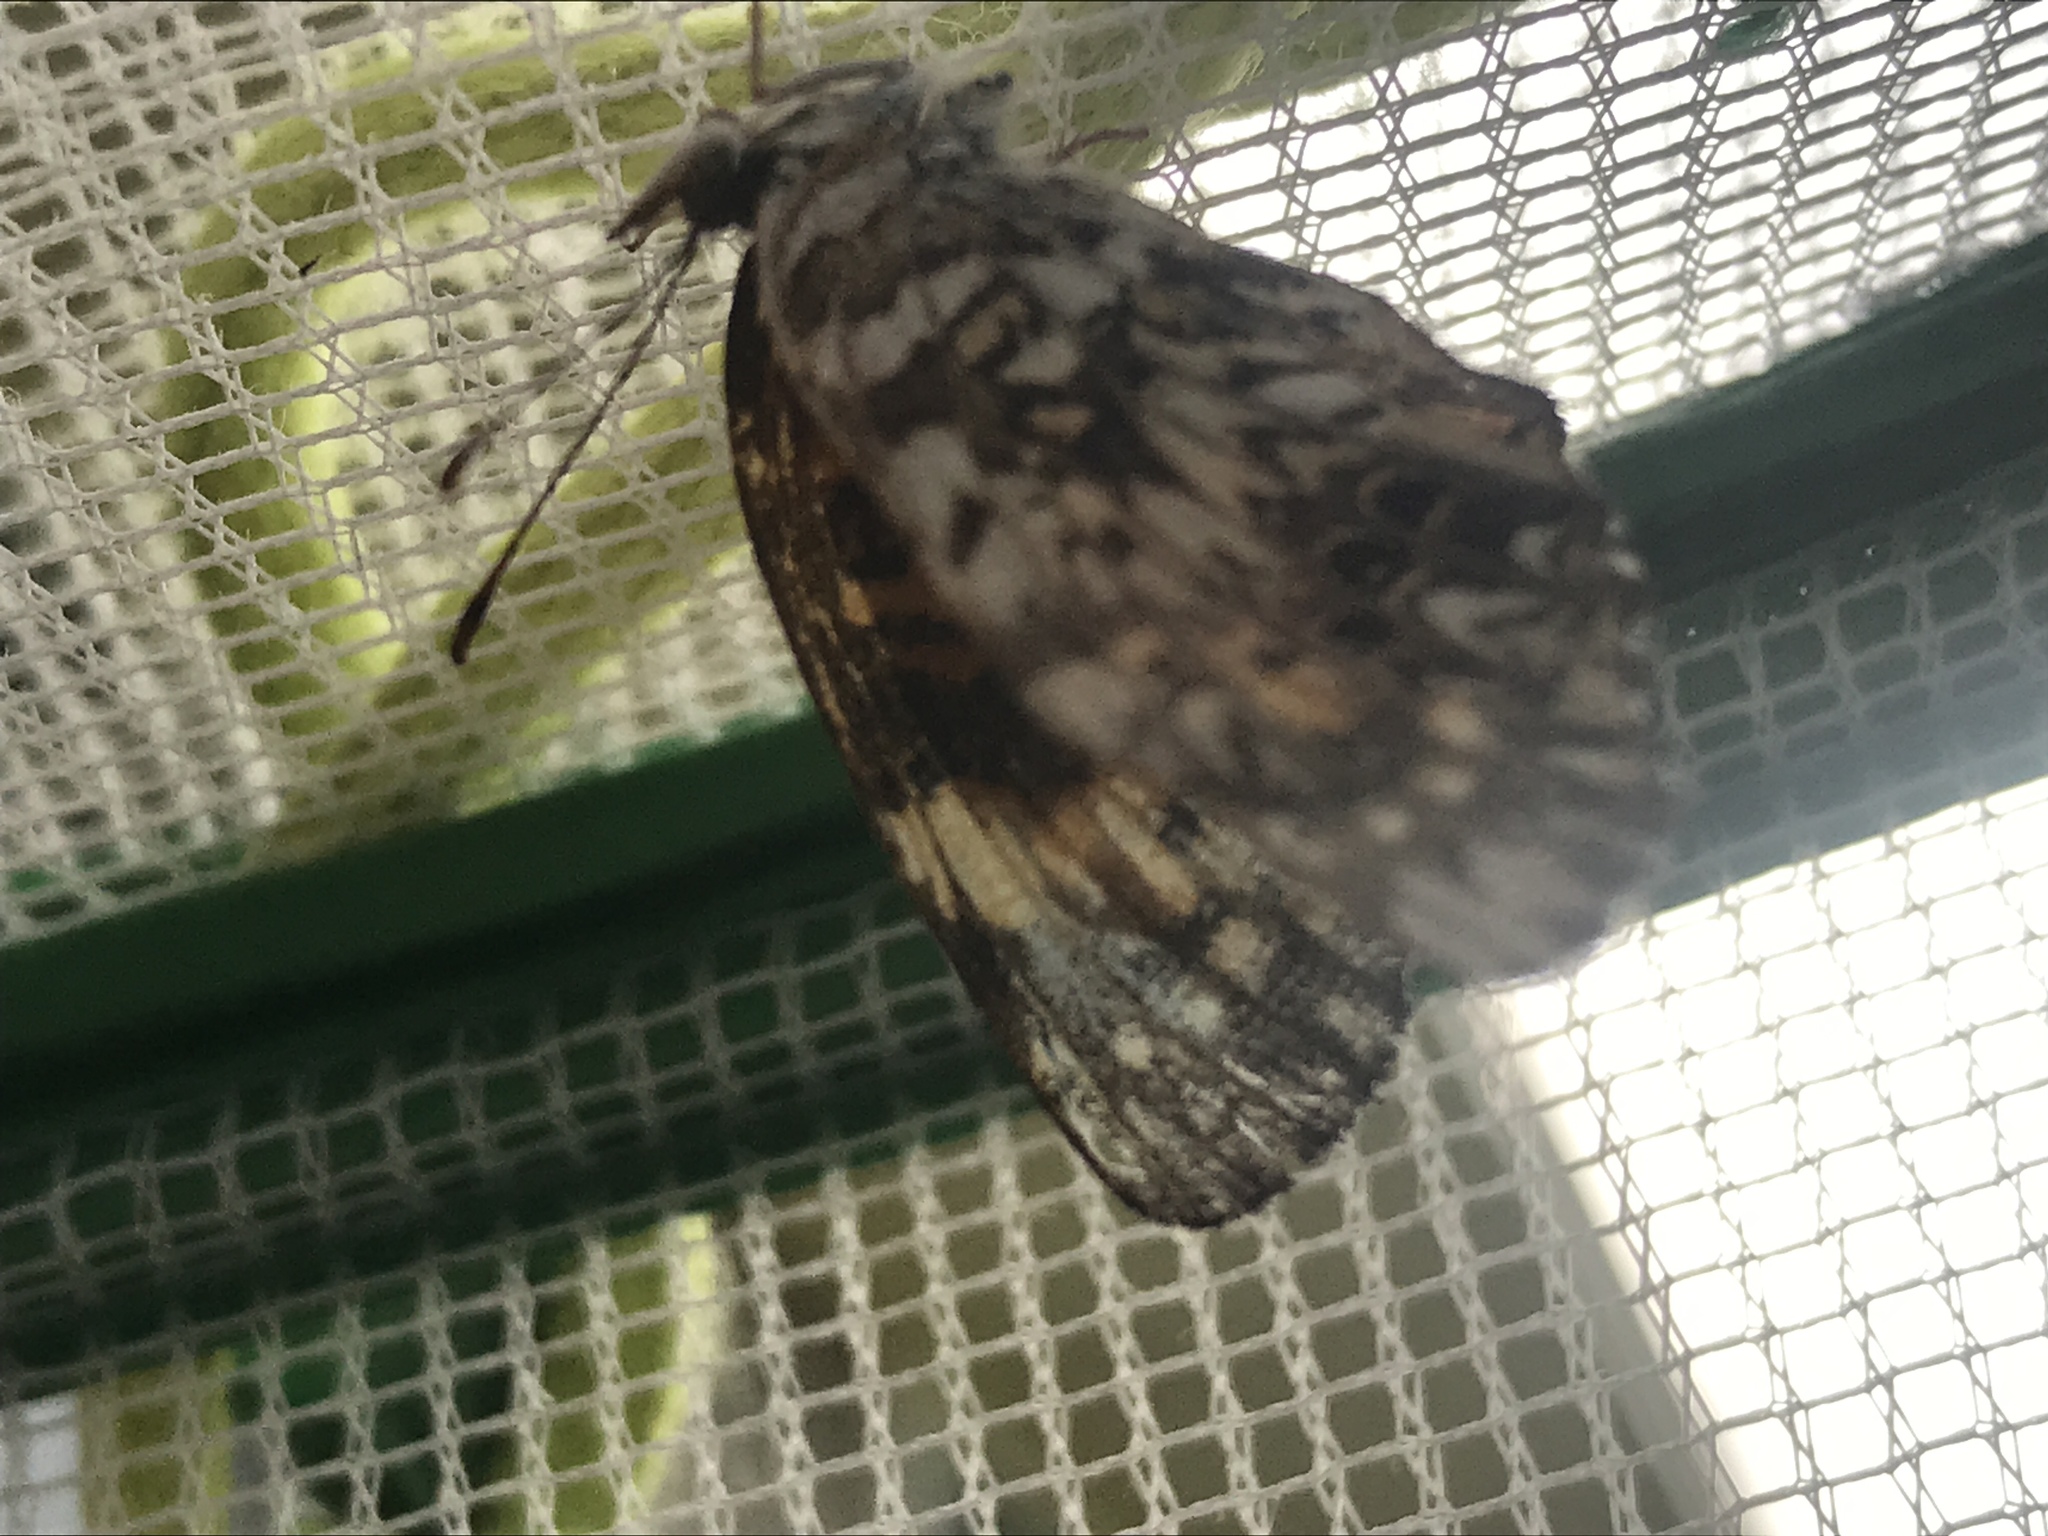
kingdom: Animalia
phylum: Arthropoda
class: Insecta
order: Lepidoptera
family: Nymphalidae
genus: Chlosyne
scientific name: Chlosyne gorgone
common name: Gorgone checkerspot
